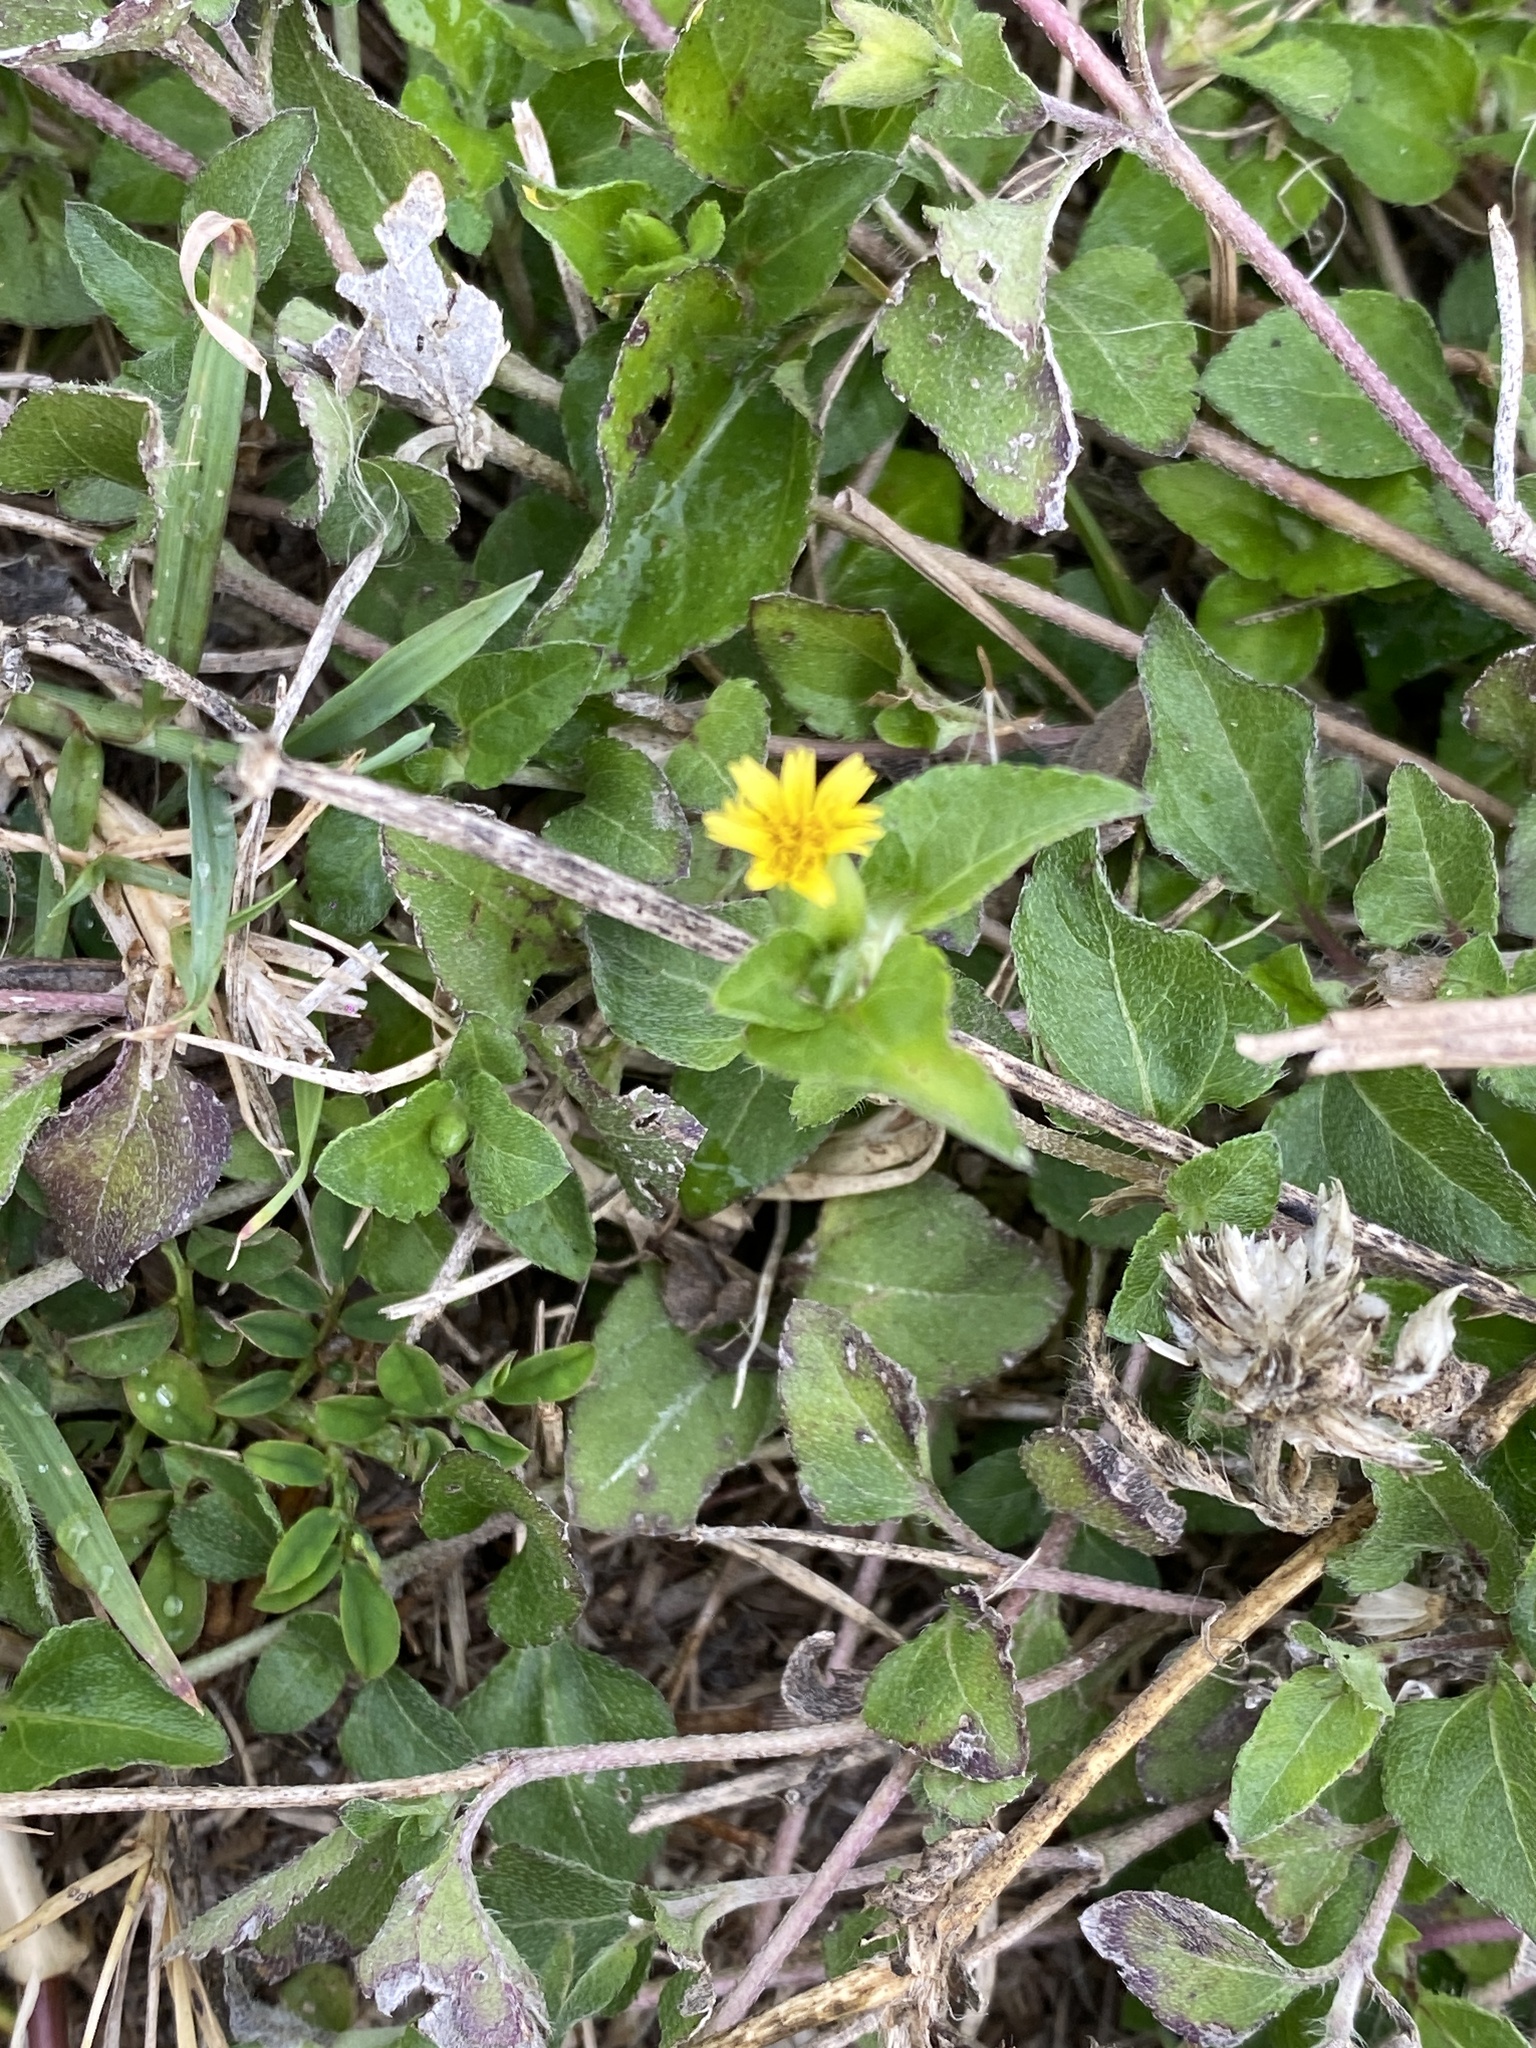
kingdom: Plantae
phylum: Tracheophyta
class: Magnoliopsida
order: Asterales
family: Asteraceae
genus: Calyptocarpus
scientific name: Calyptocarpus vialis
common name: Straggler daisy
